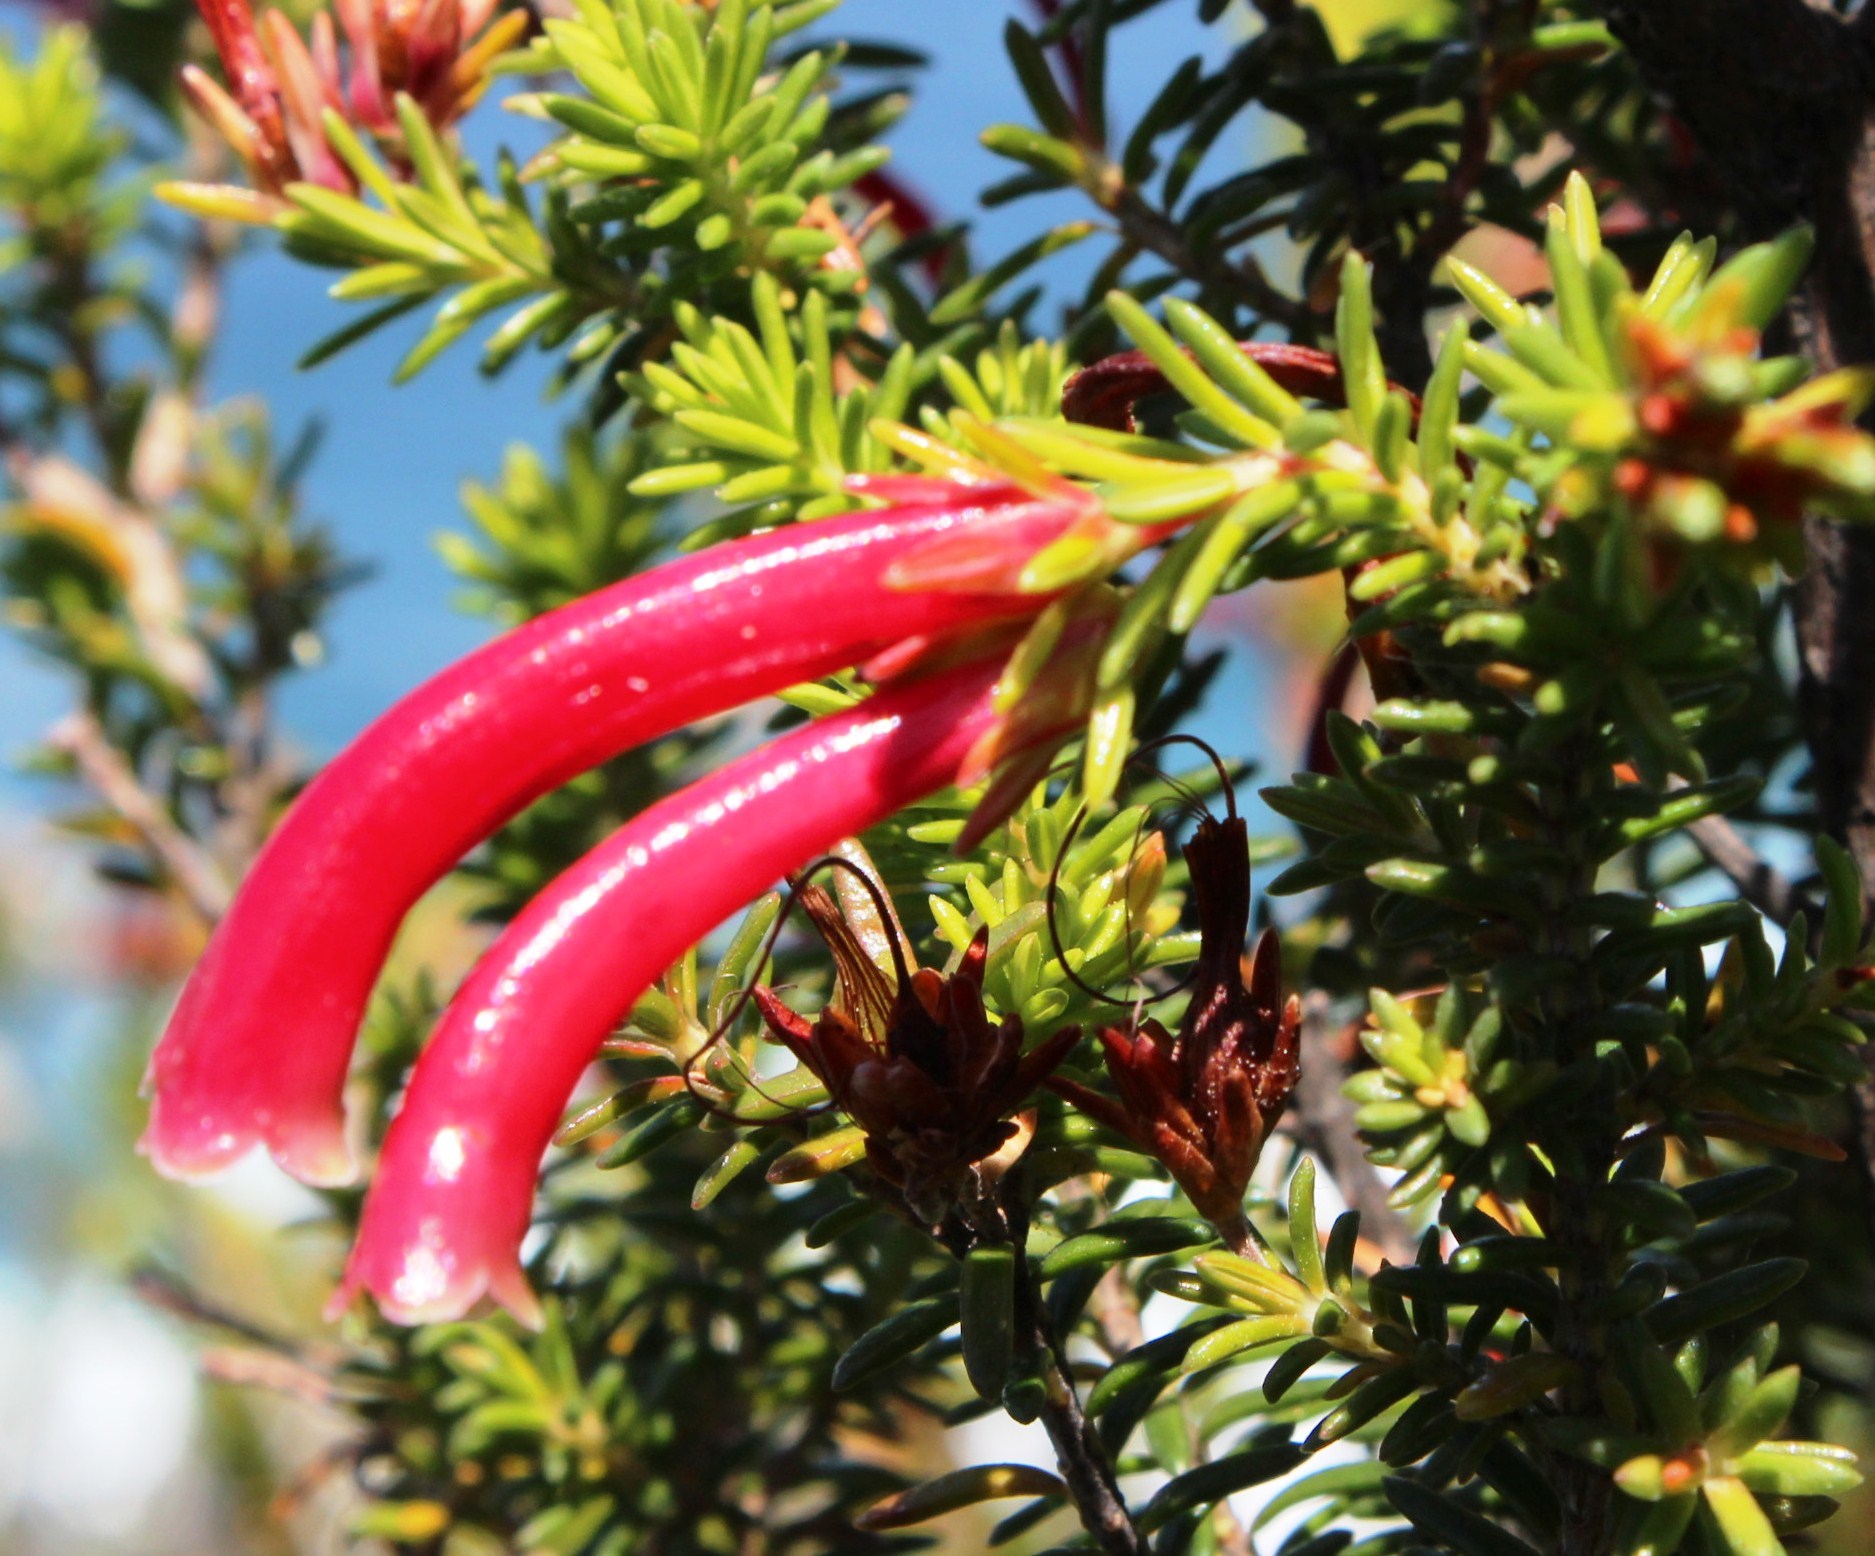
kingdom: Plantae
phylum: Tracheophyta
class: Magnoliopsida
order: Ericales
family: Ericaceae
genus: Erica
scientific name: Erica discolor
